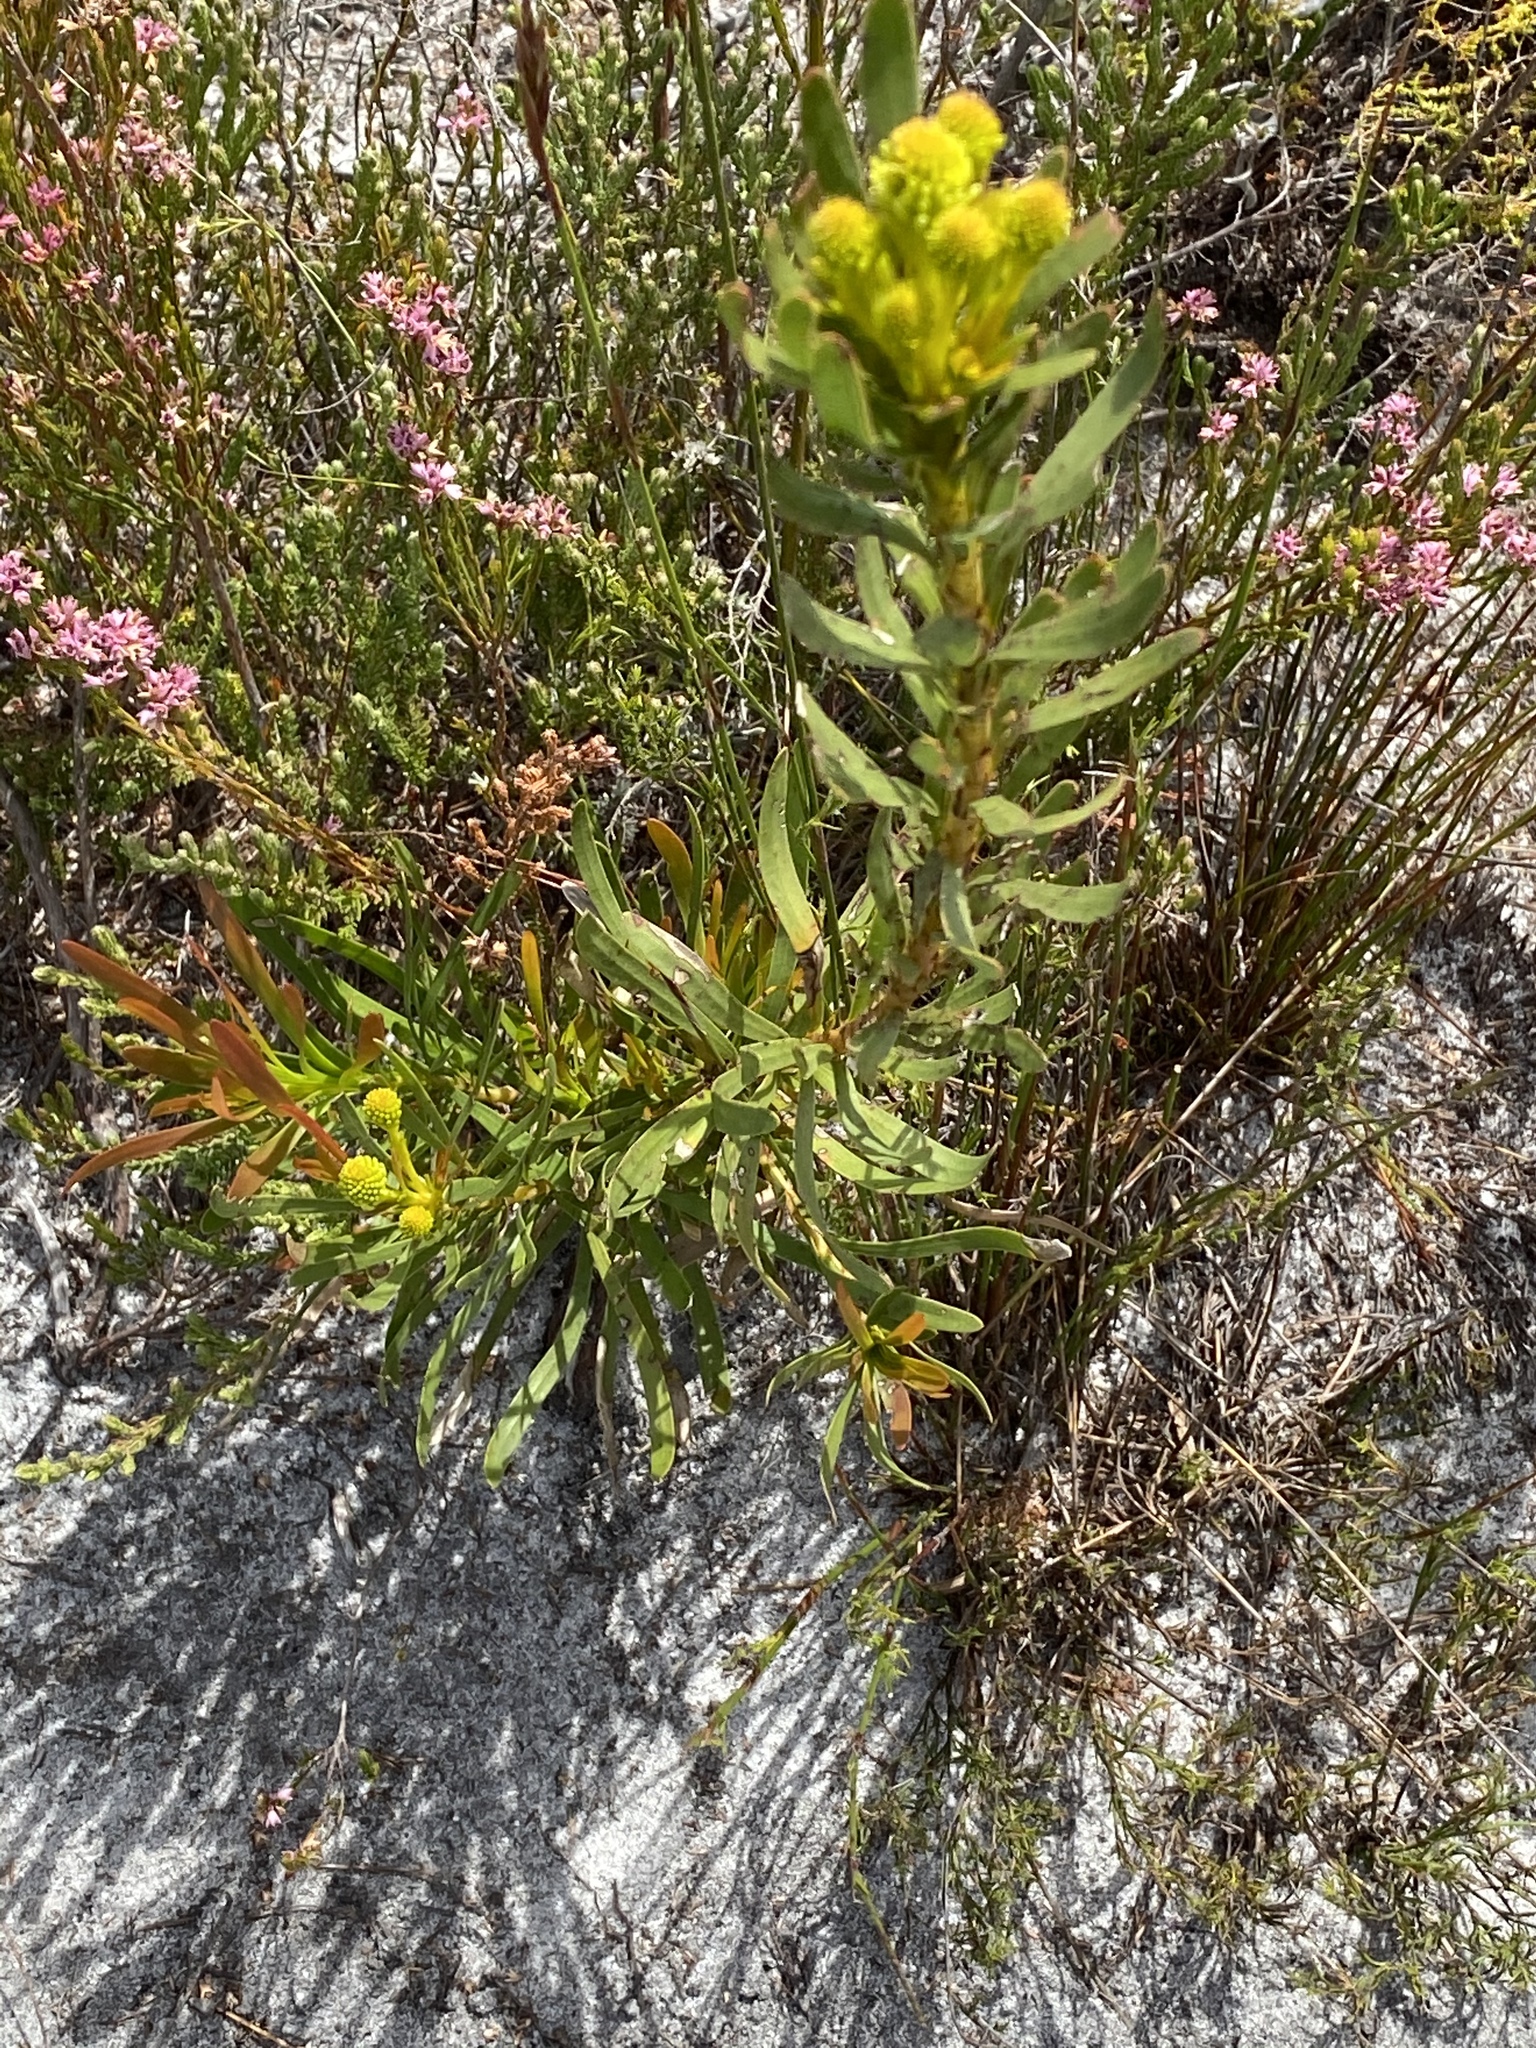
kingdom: Plantae
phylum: Tracheophyta
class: Magnoliopsida
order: Proteales
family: Proteaceae
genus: Aulax
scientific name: Aulax umbellata
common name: Broad-leaf featherbush
